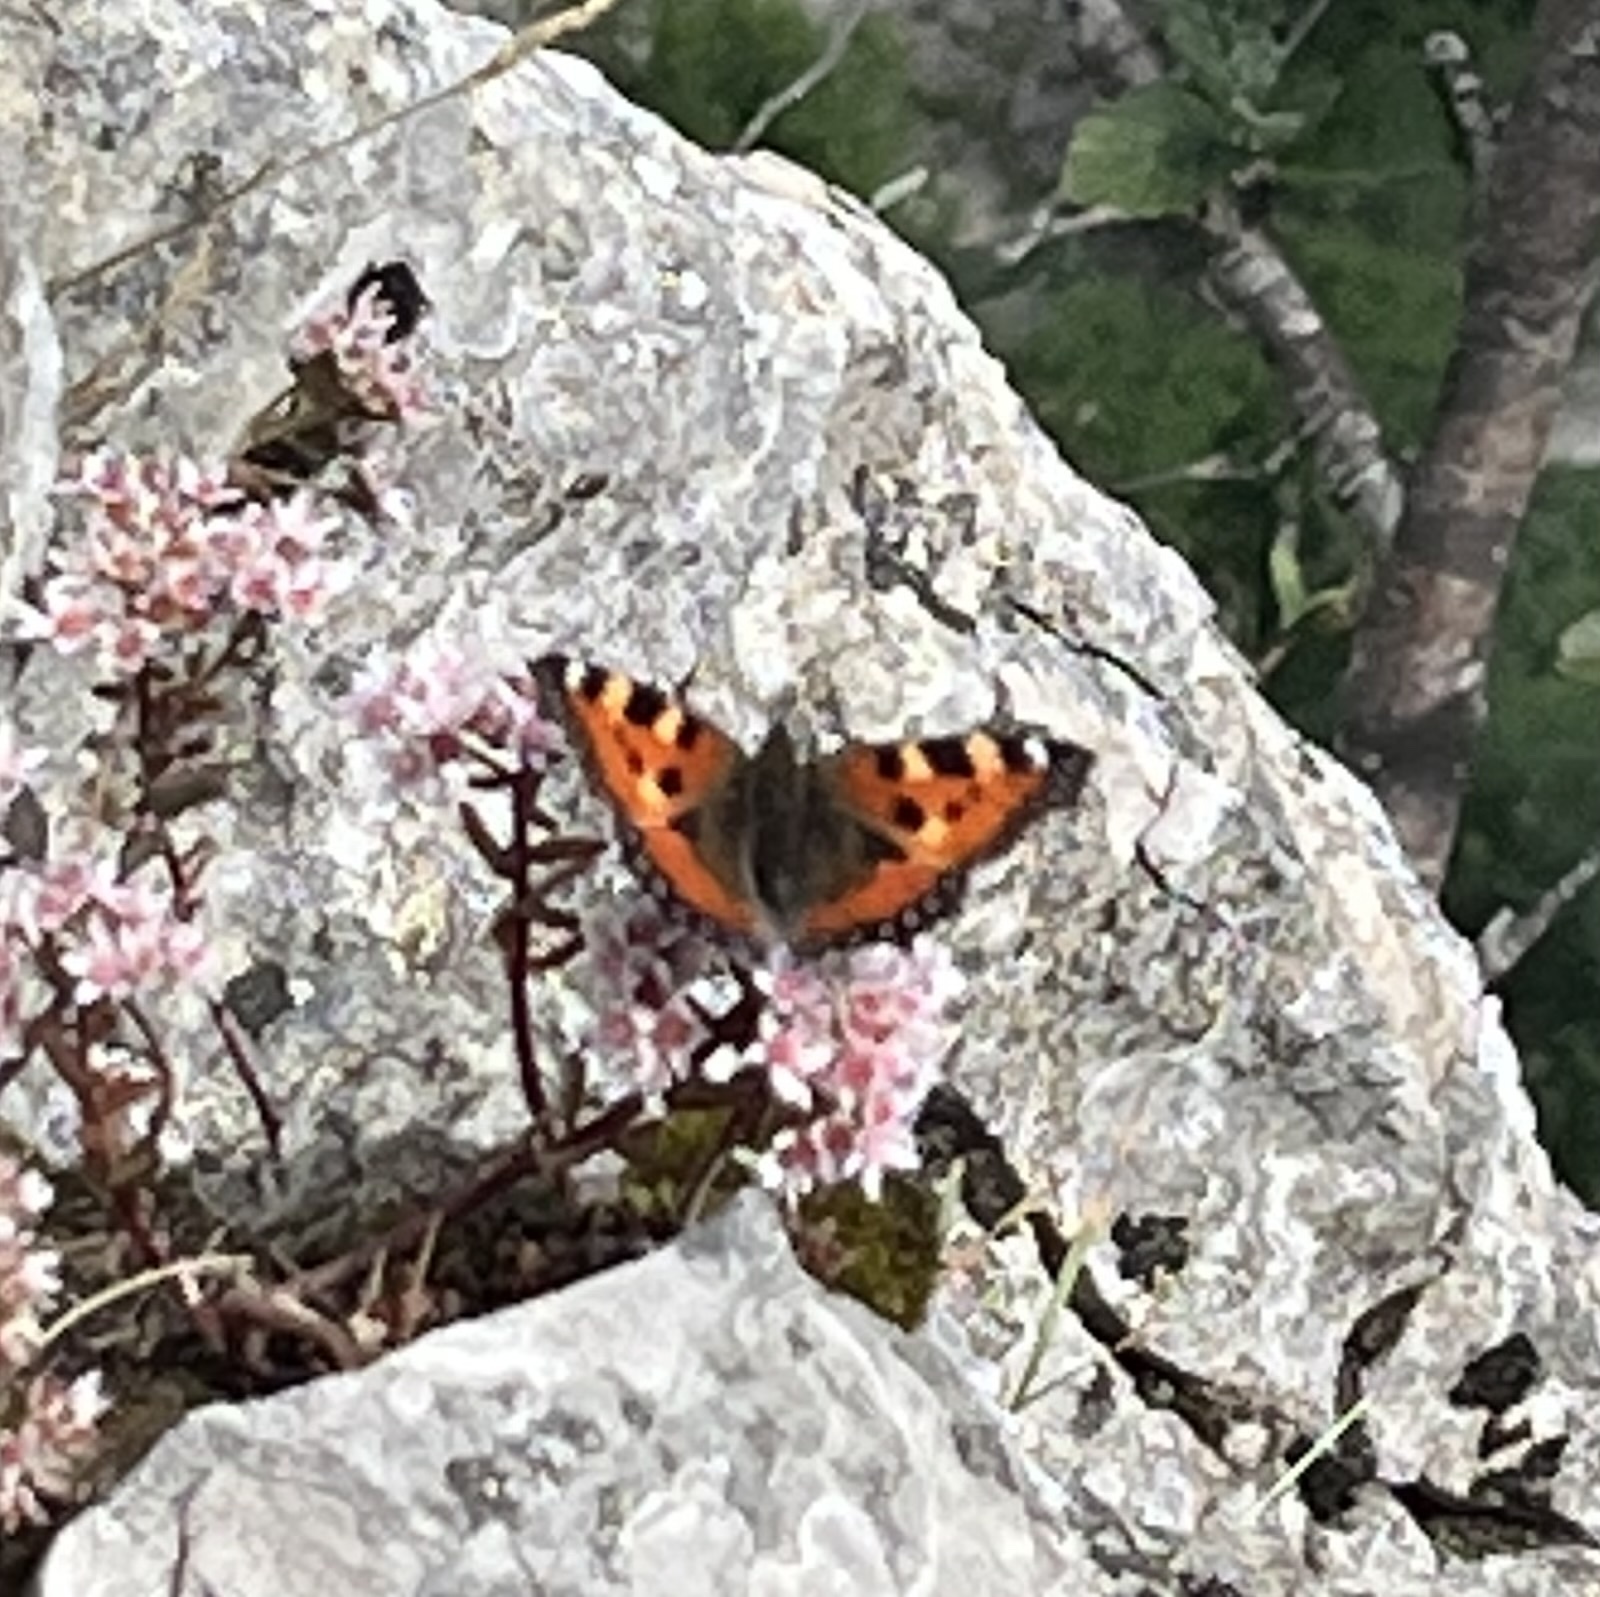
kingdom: Animalia
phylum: Arthropoda
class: Insecta
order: Lepidoptera
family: Nymphalidae
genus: Aglais
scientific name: Aglais urticae
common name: Small tortoiseshell
